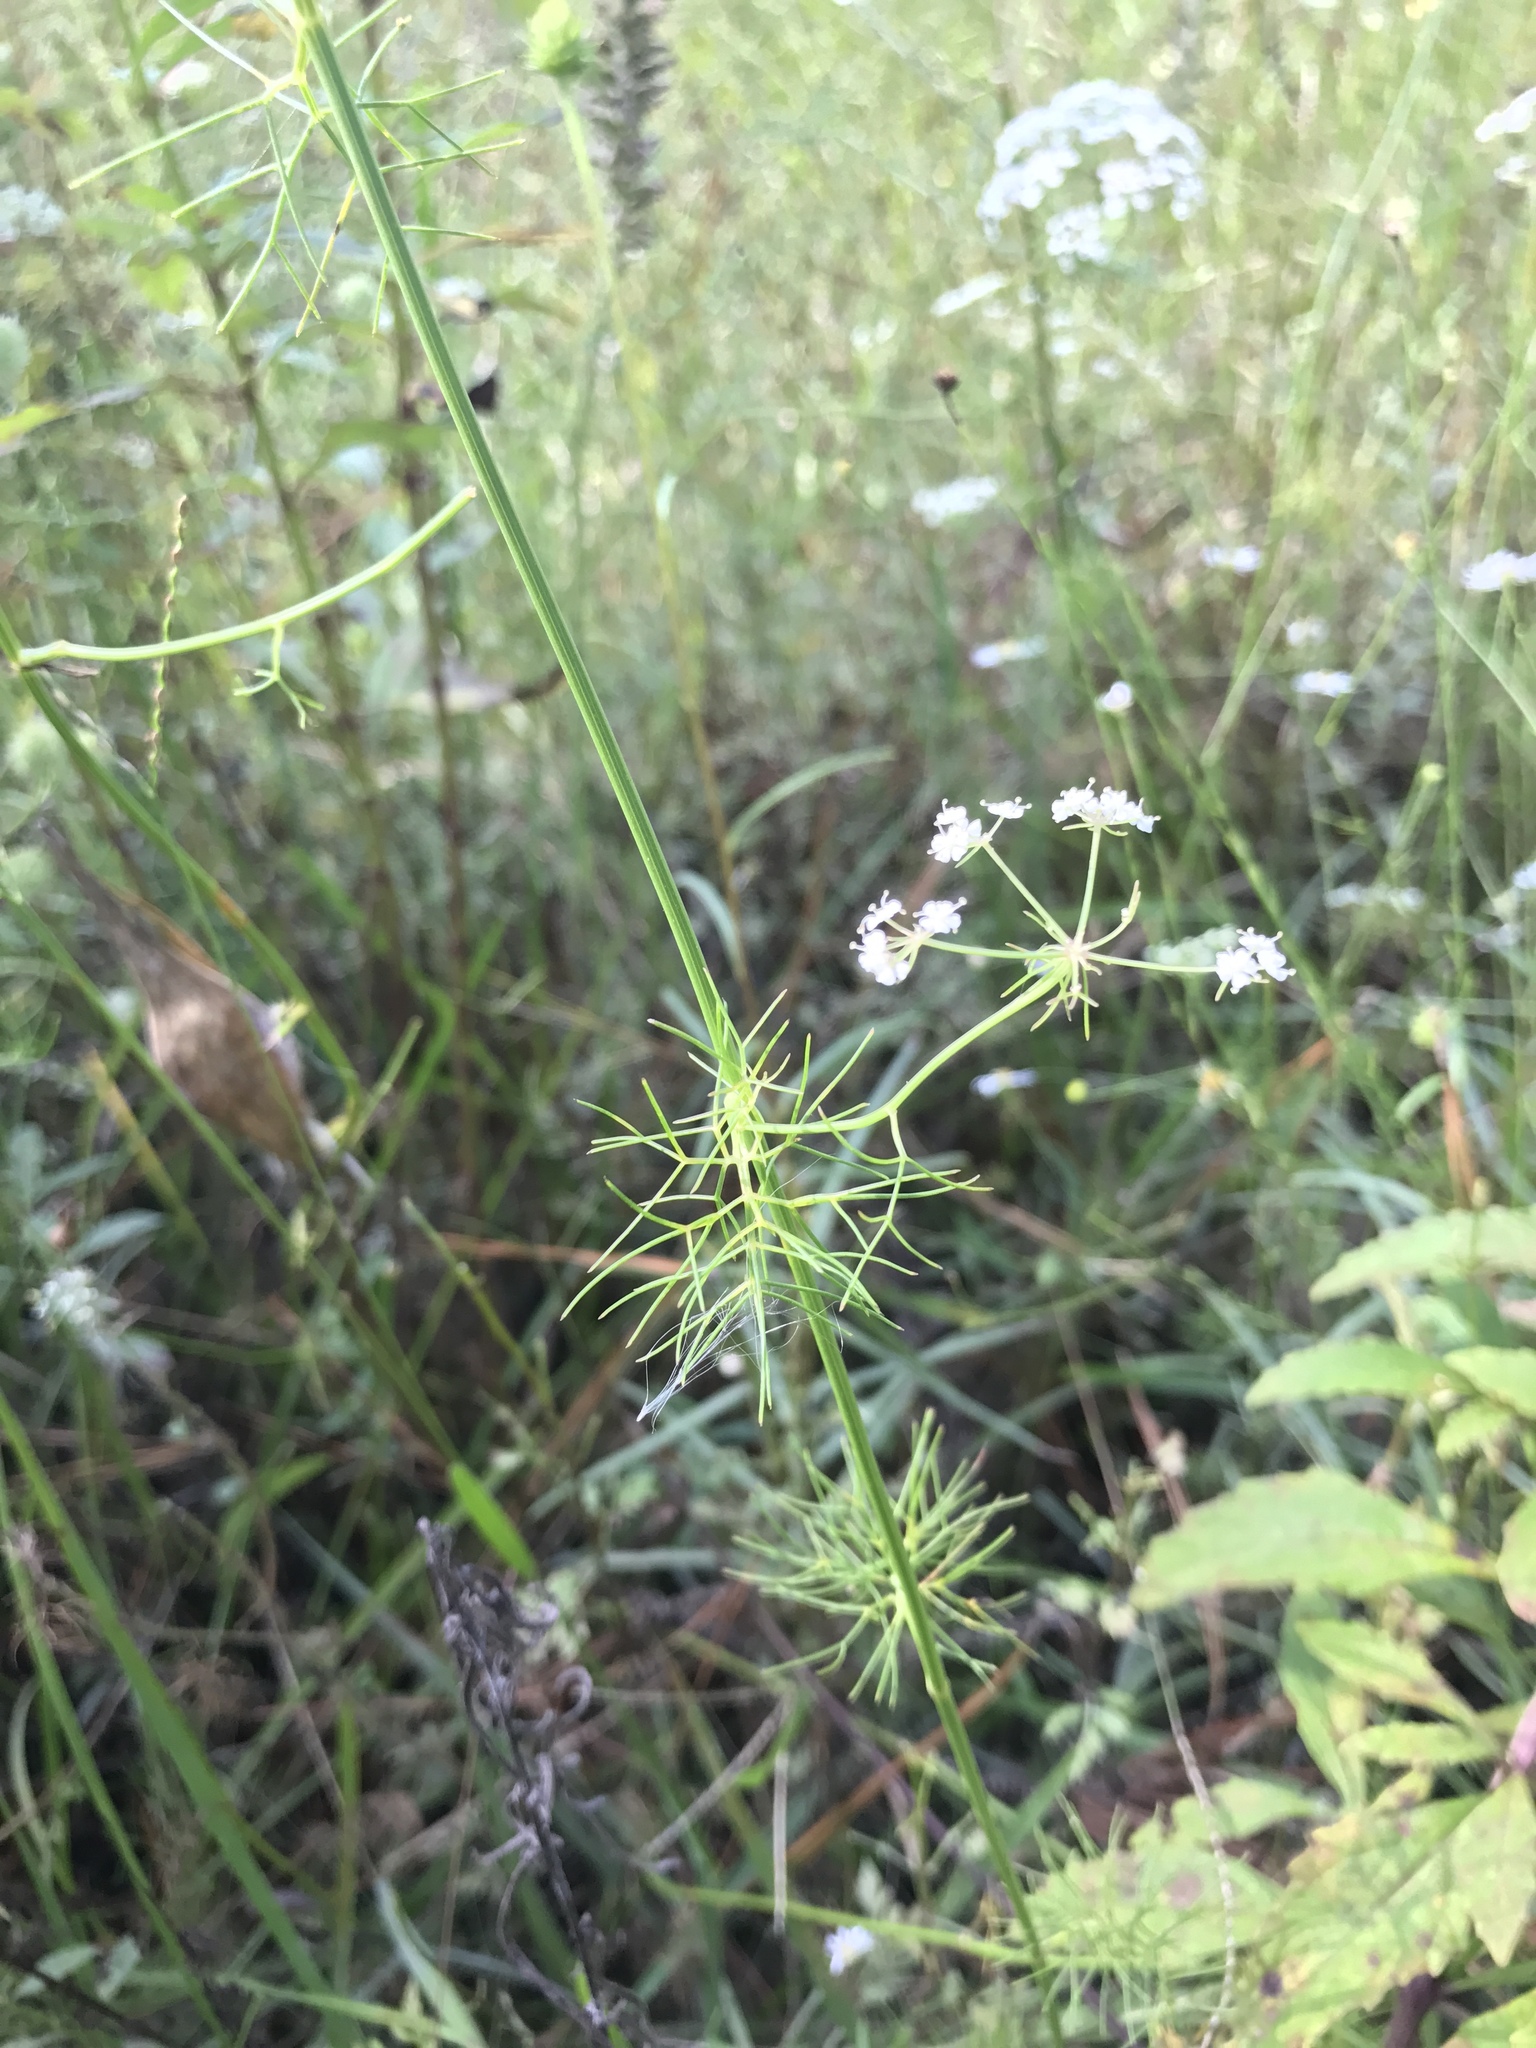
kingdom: Plantae
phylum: Tracheophyta
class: Magnoliopsida
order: Apiales
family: Apiaceae
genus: Ptilimnium
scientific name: Ptilimnium costatum
